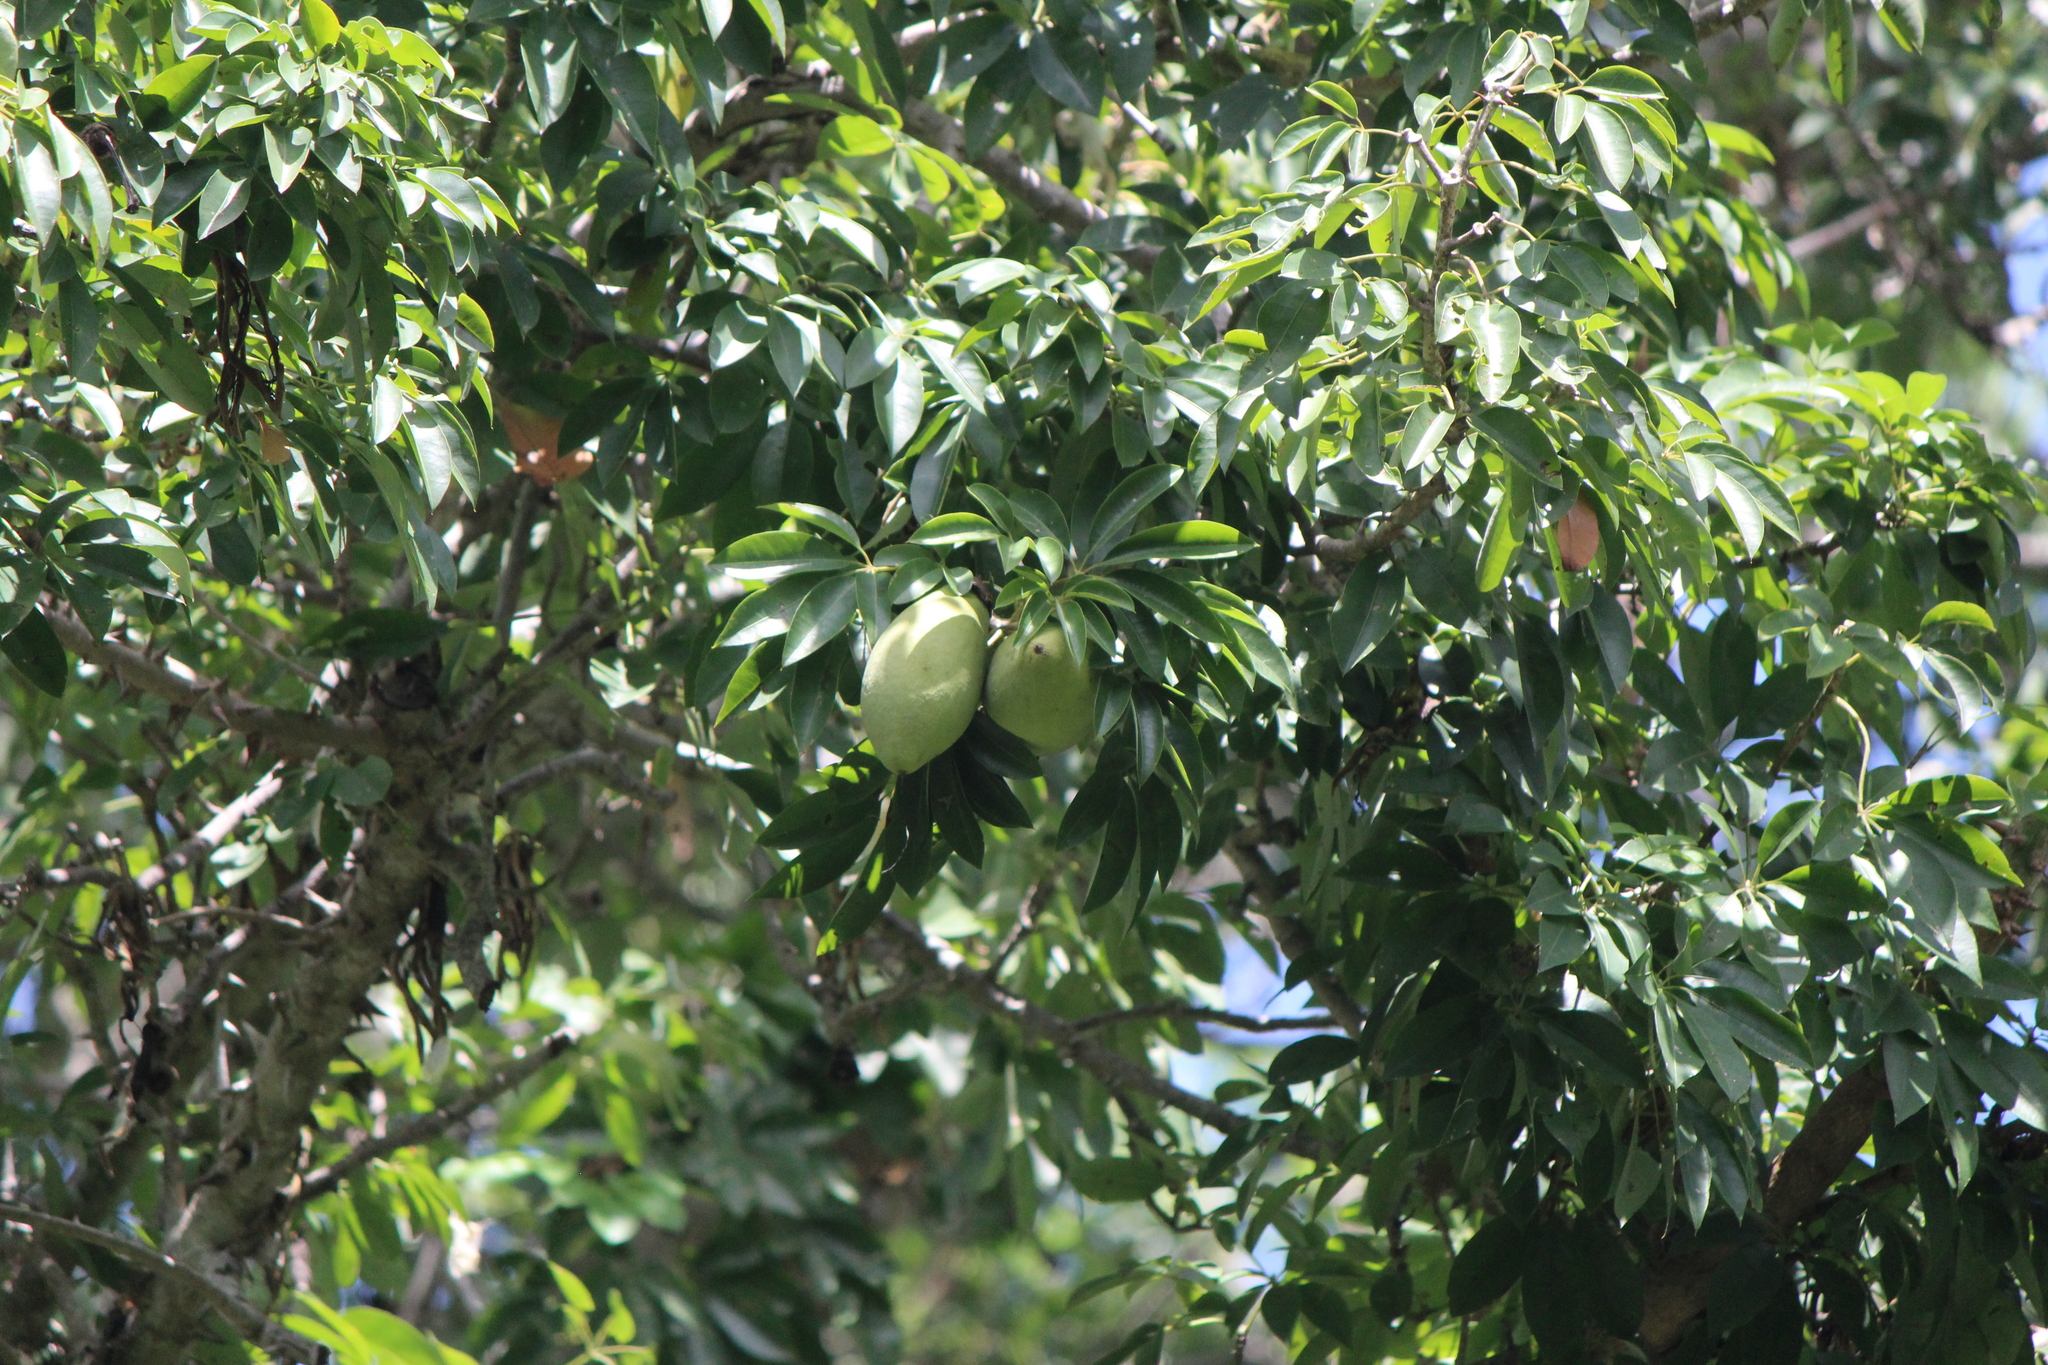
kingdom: Plantae
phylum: Tracheophyta
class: Magnoliopsida
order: Malvales
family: Malvaceae
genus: Ceiba
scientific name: Ceiba schottii
